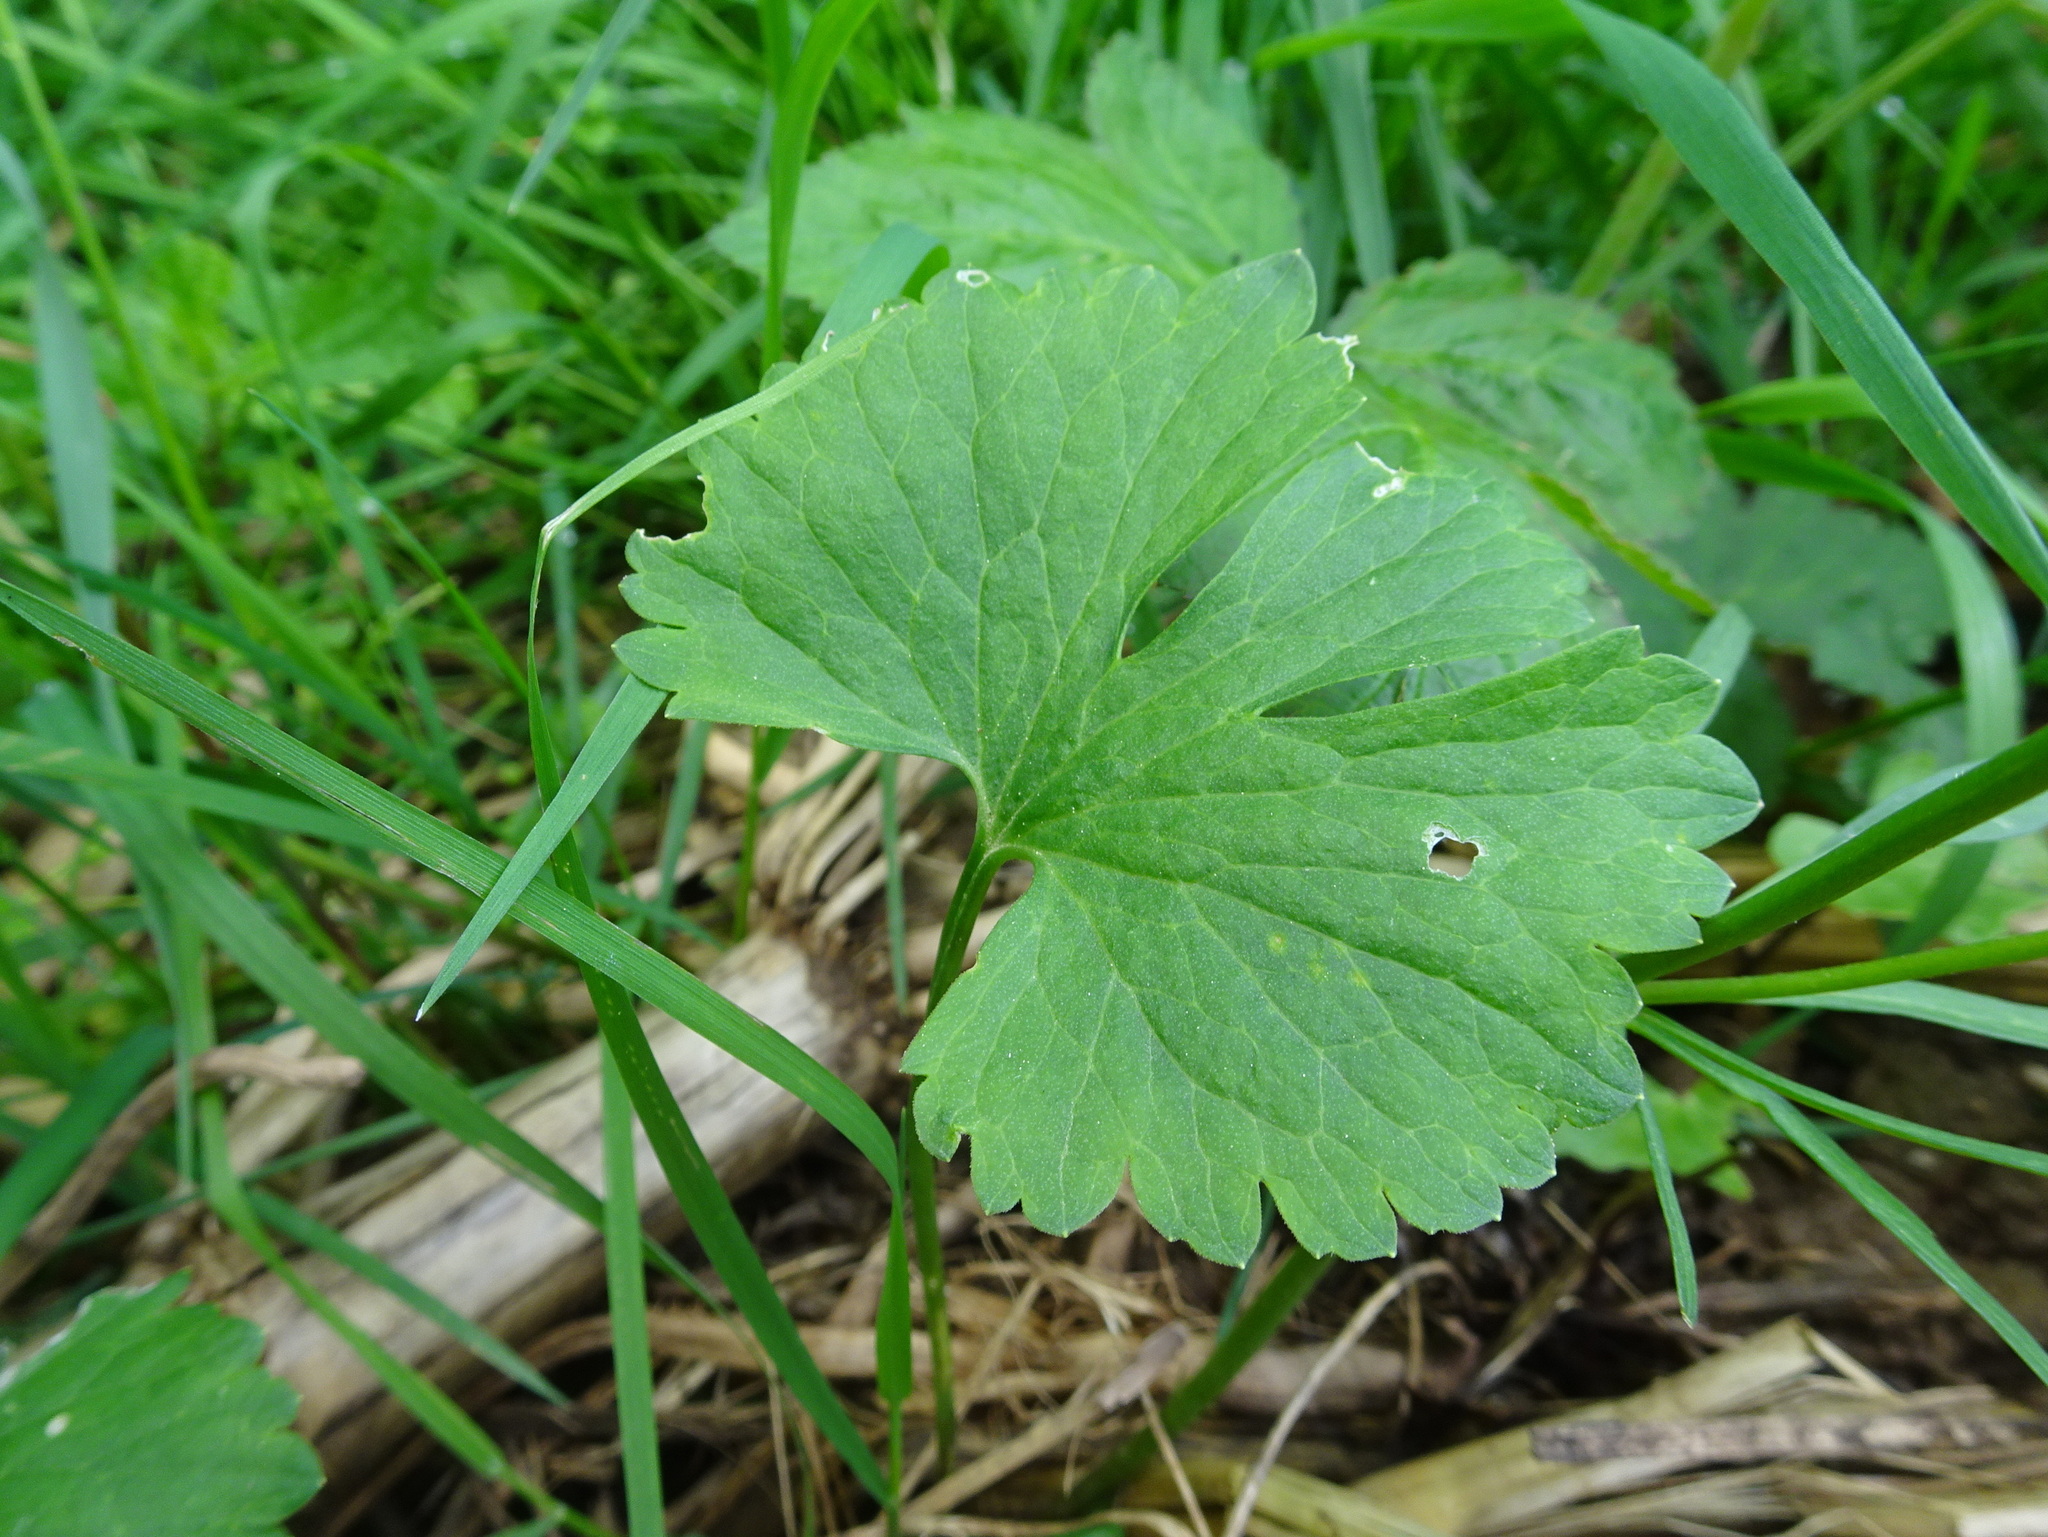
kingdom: Plantae
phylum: Tracheophyta
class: Magnoliopsida
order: Ranunculales
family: Ranunculaceae
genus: Ranunculus
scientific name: Ranunculus auricomus
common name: Goldilocks buttercup
